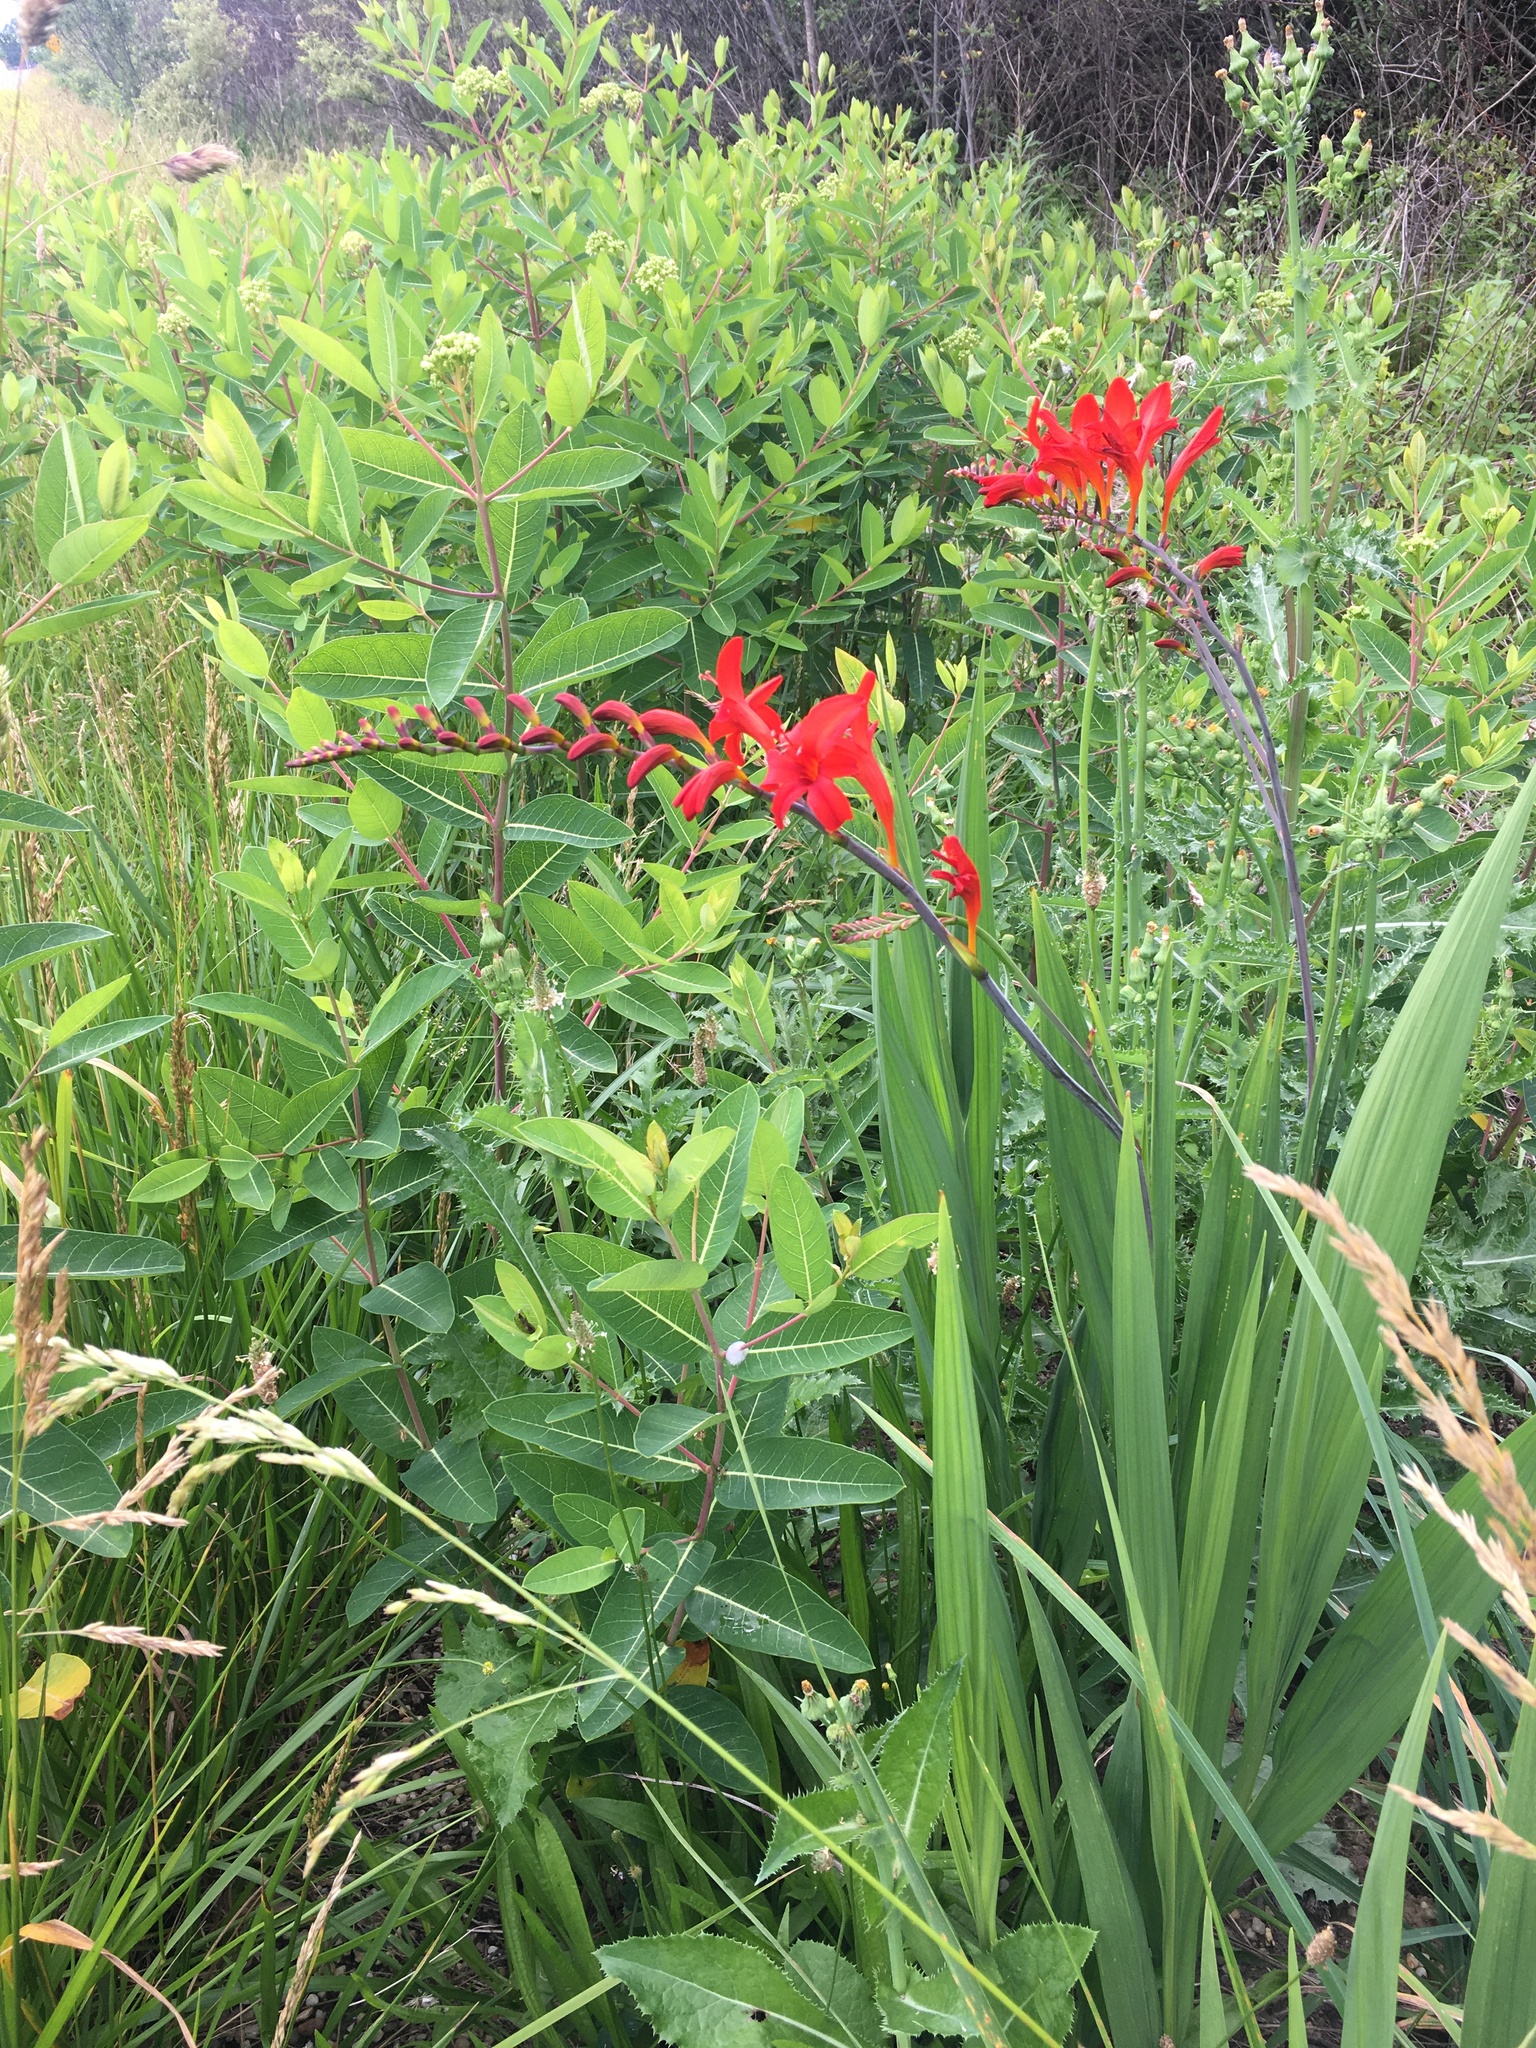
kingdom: Plantae
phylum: Tracheophyta
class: Liliopsida
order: Asparagales
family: Iridaceae
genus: Crocosmia
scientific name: Crocosmia
